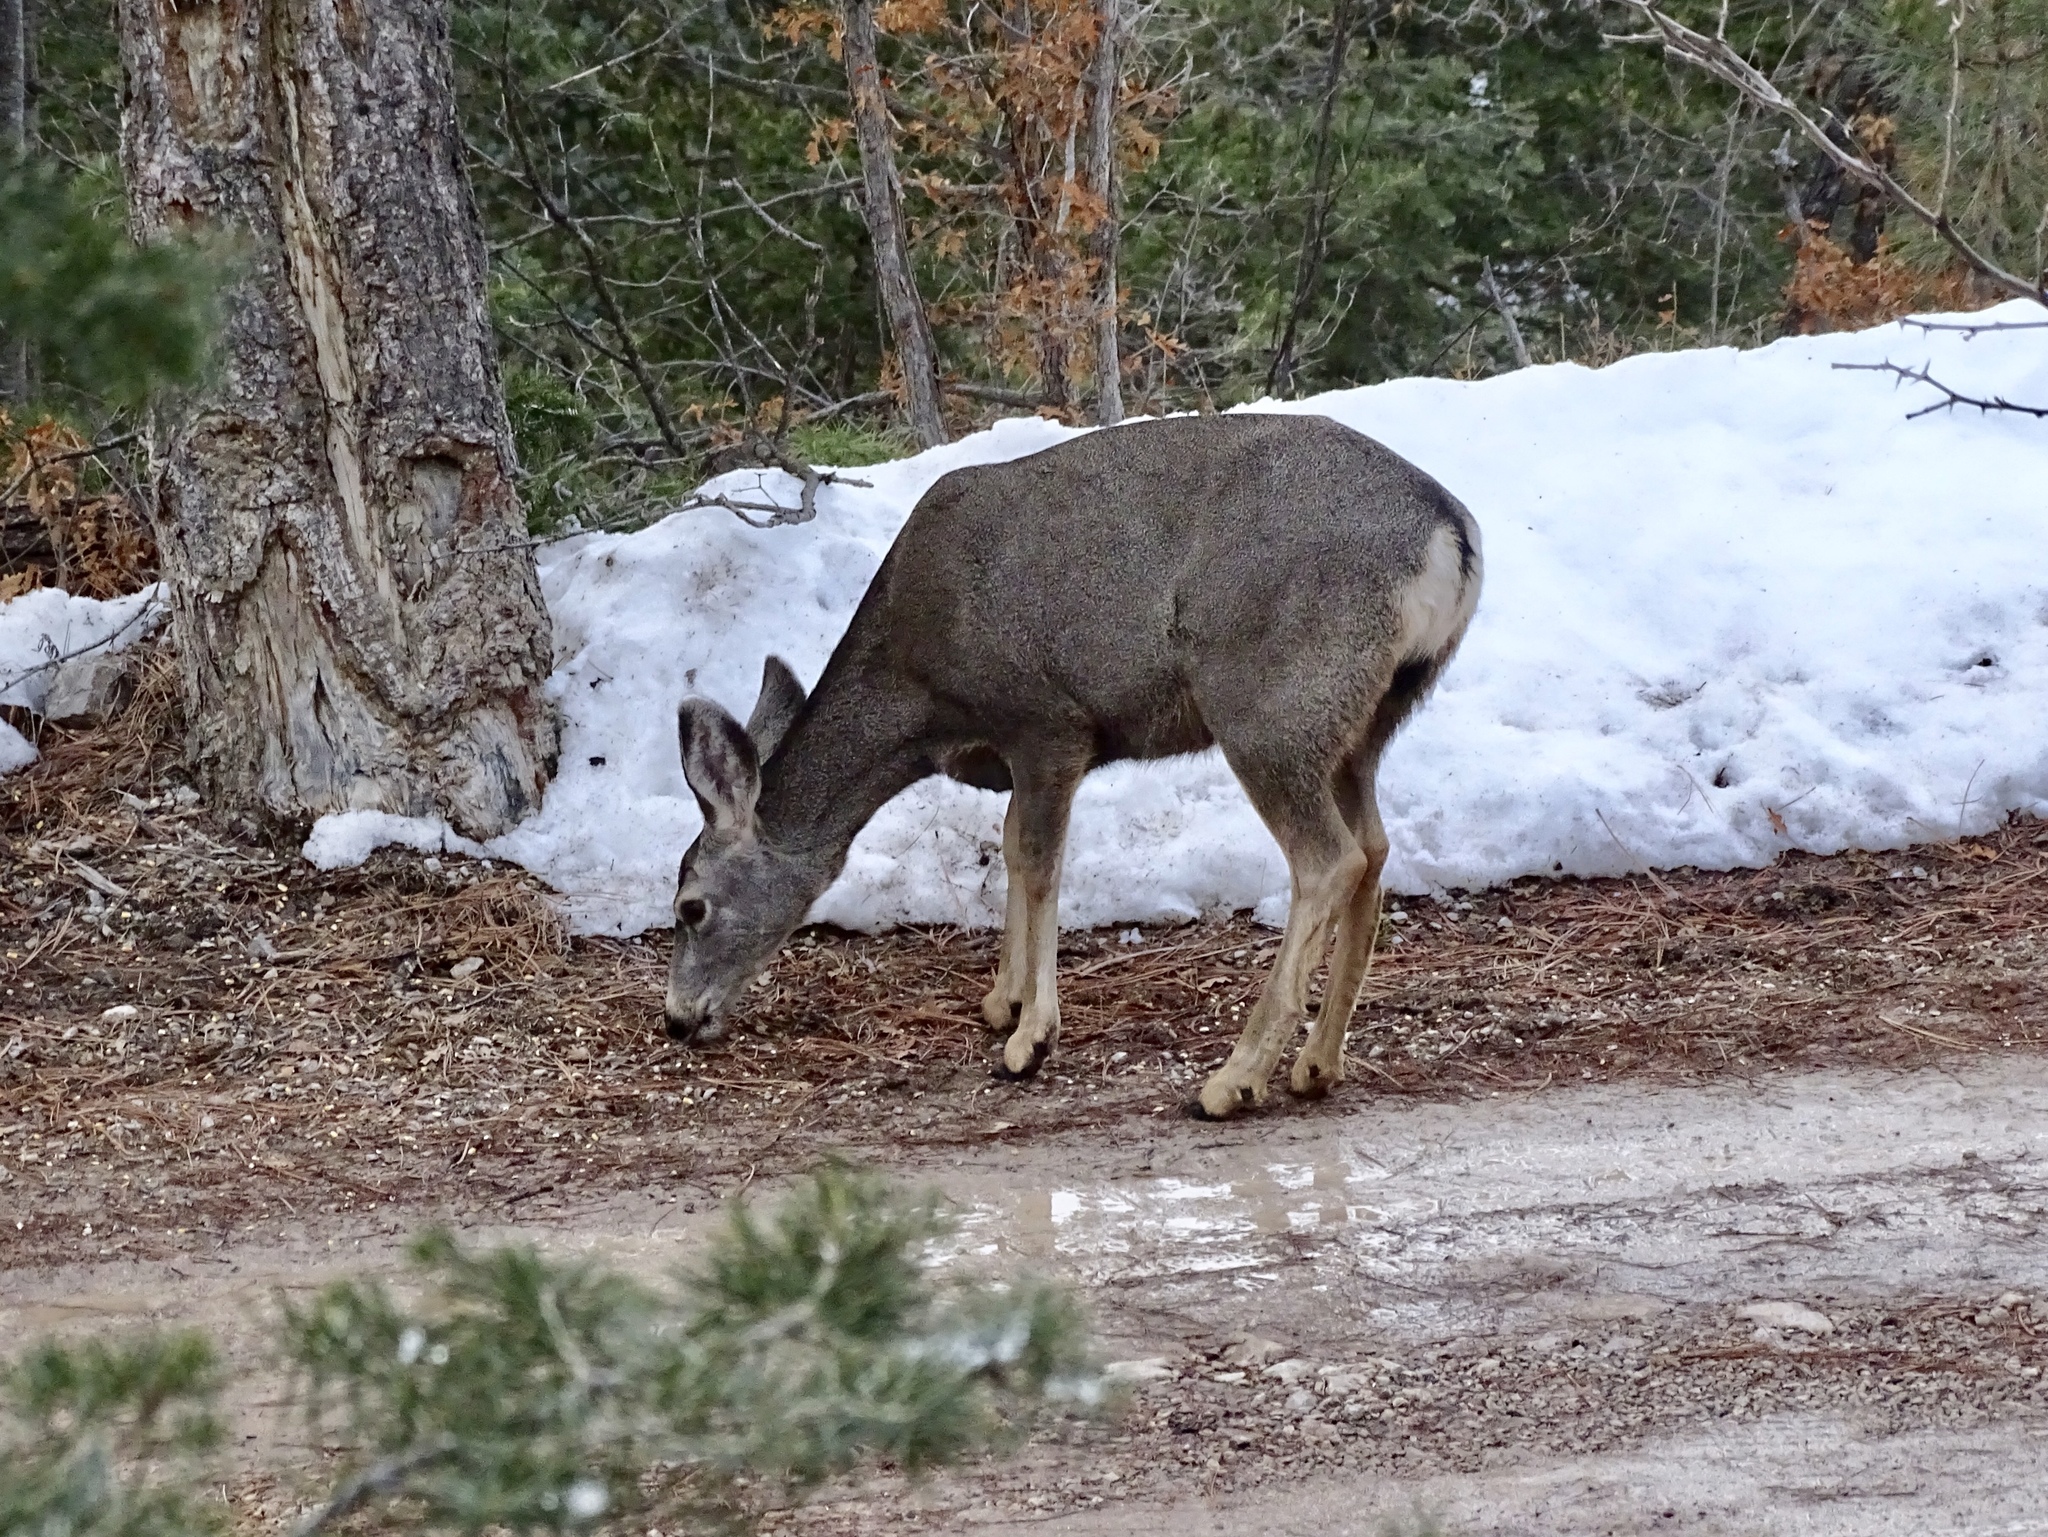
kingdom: Animalia
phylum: Chordata
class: Mammalia
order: Artiodactyla
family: Cervidae
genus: Odocoileus
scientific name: Odocoileus hemionus
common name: Mule deer
